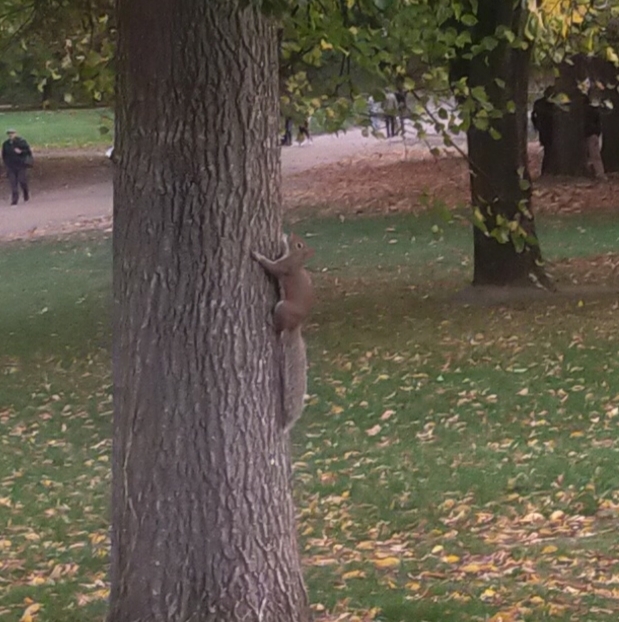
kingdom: Animalia
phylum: Chordata
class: Mammalia
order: Rodentia
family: Sciuridae
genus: Sciurus
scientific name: Sciurus carolinensis
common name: Eastern gray squirrel
